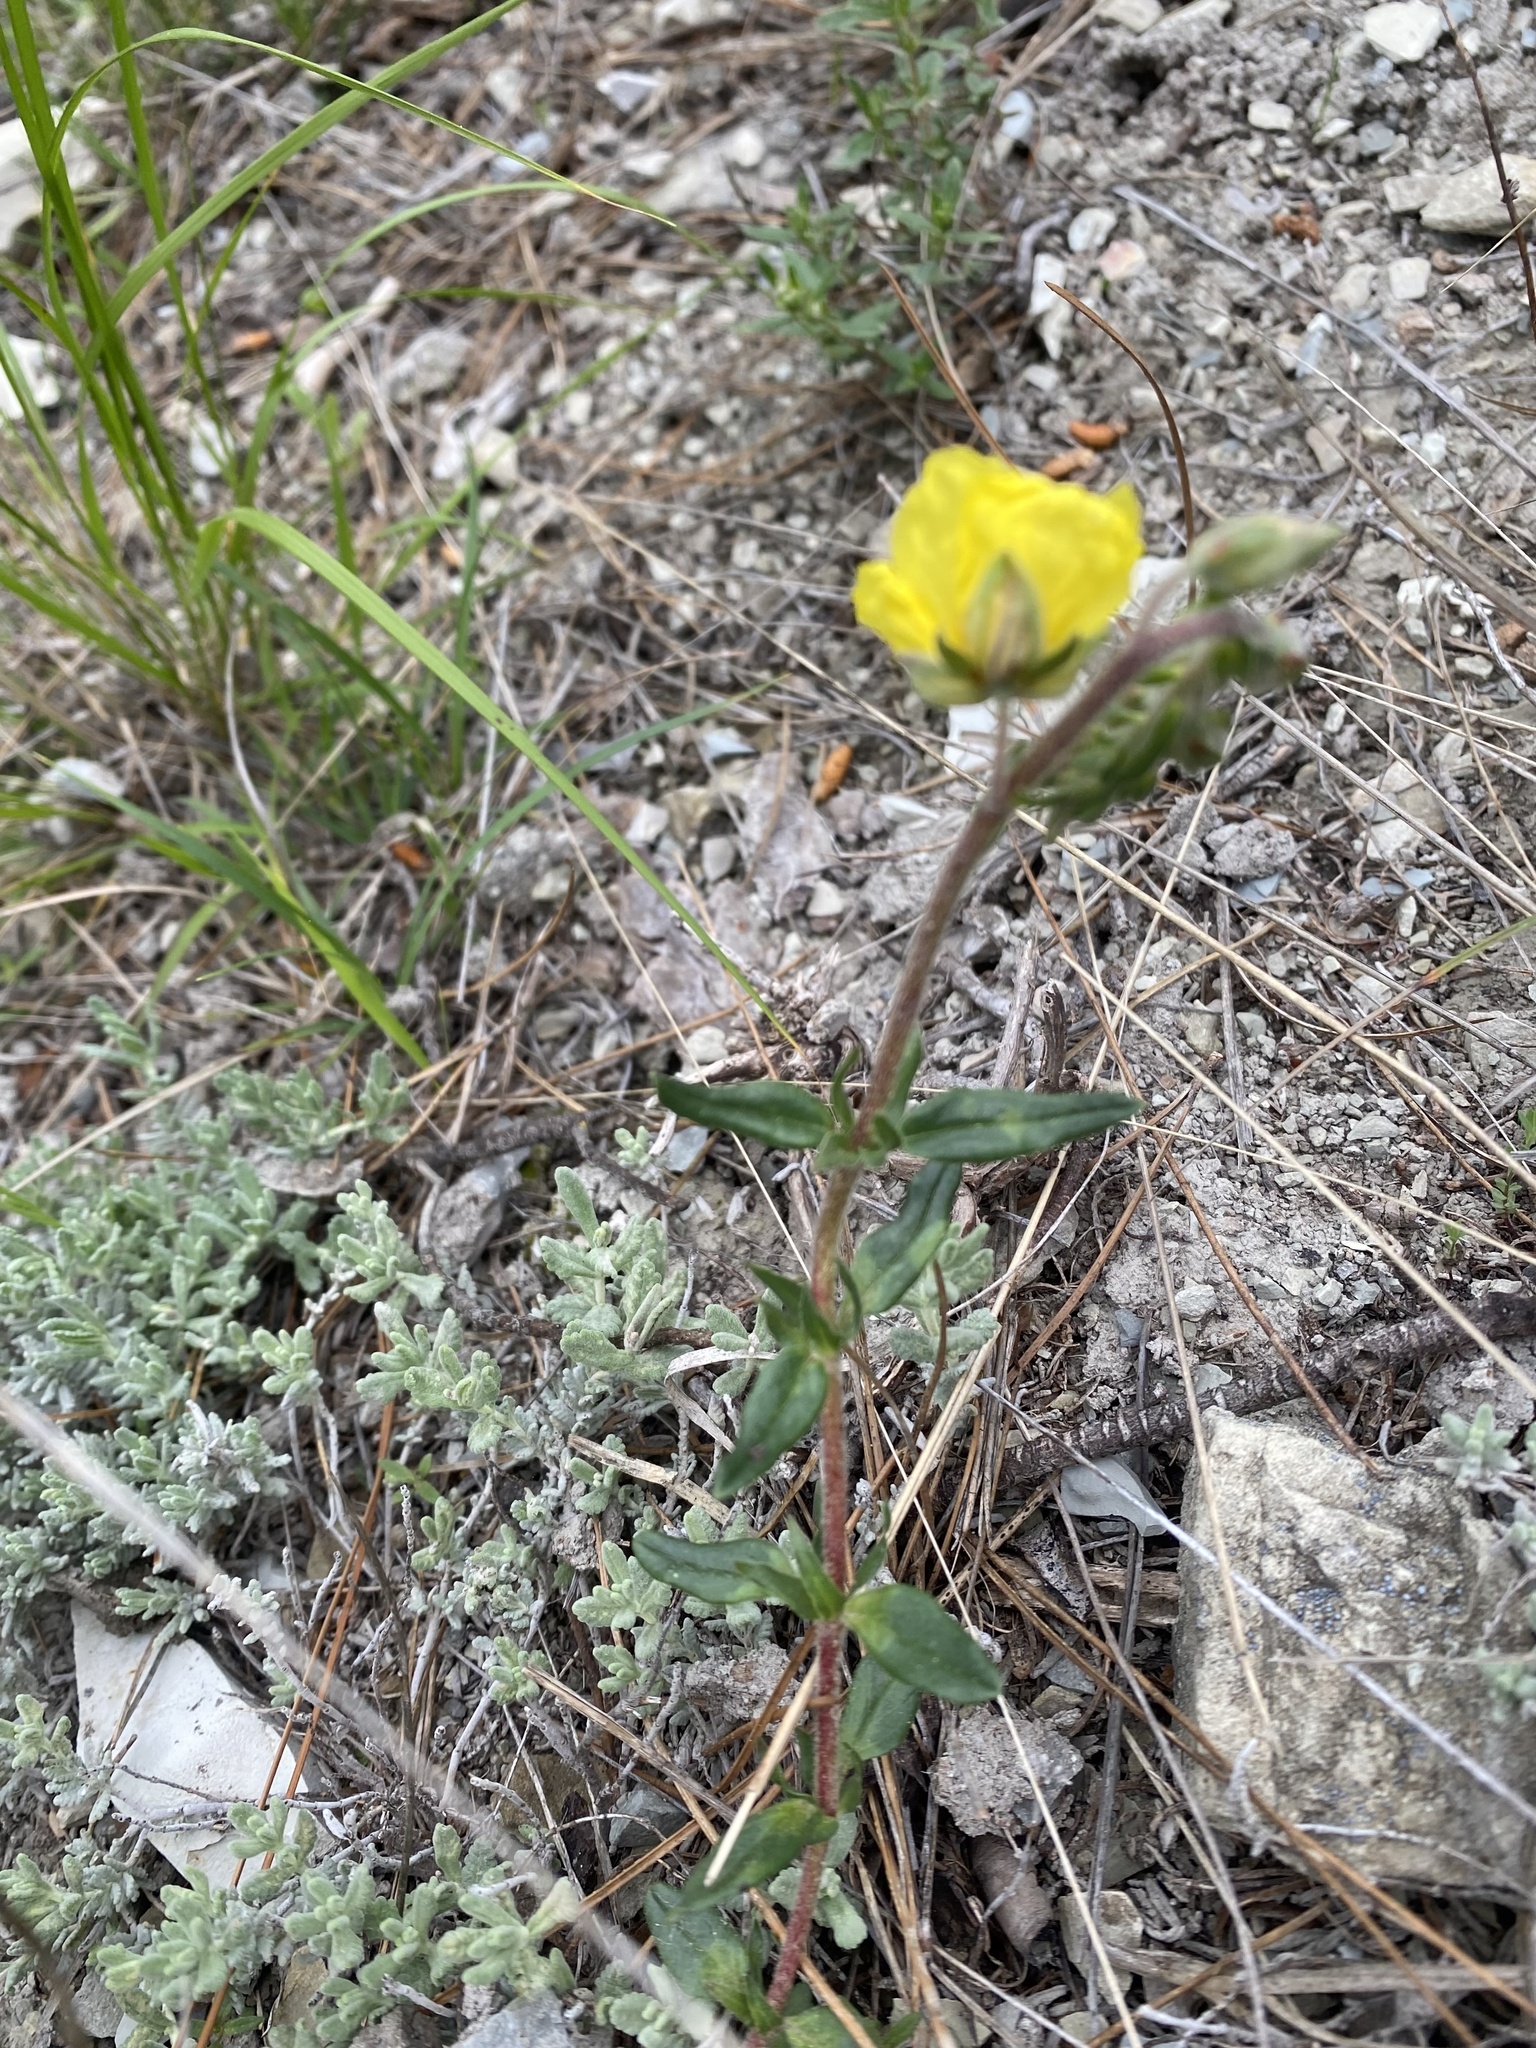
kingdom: Plantae
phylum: Tracheophyta
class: Magnoliopsida
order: Malvales
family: Cistaceae
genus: Helianthemum
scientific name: Helianthemum nummularium
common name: Common rock-rose
